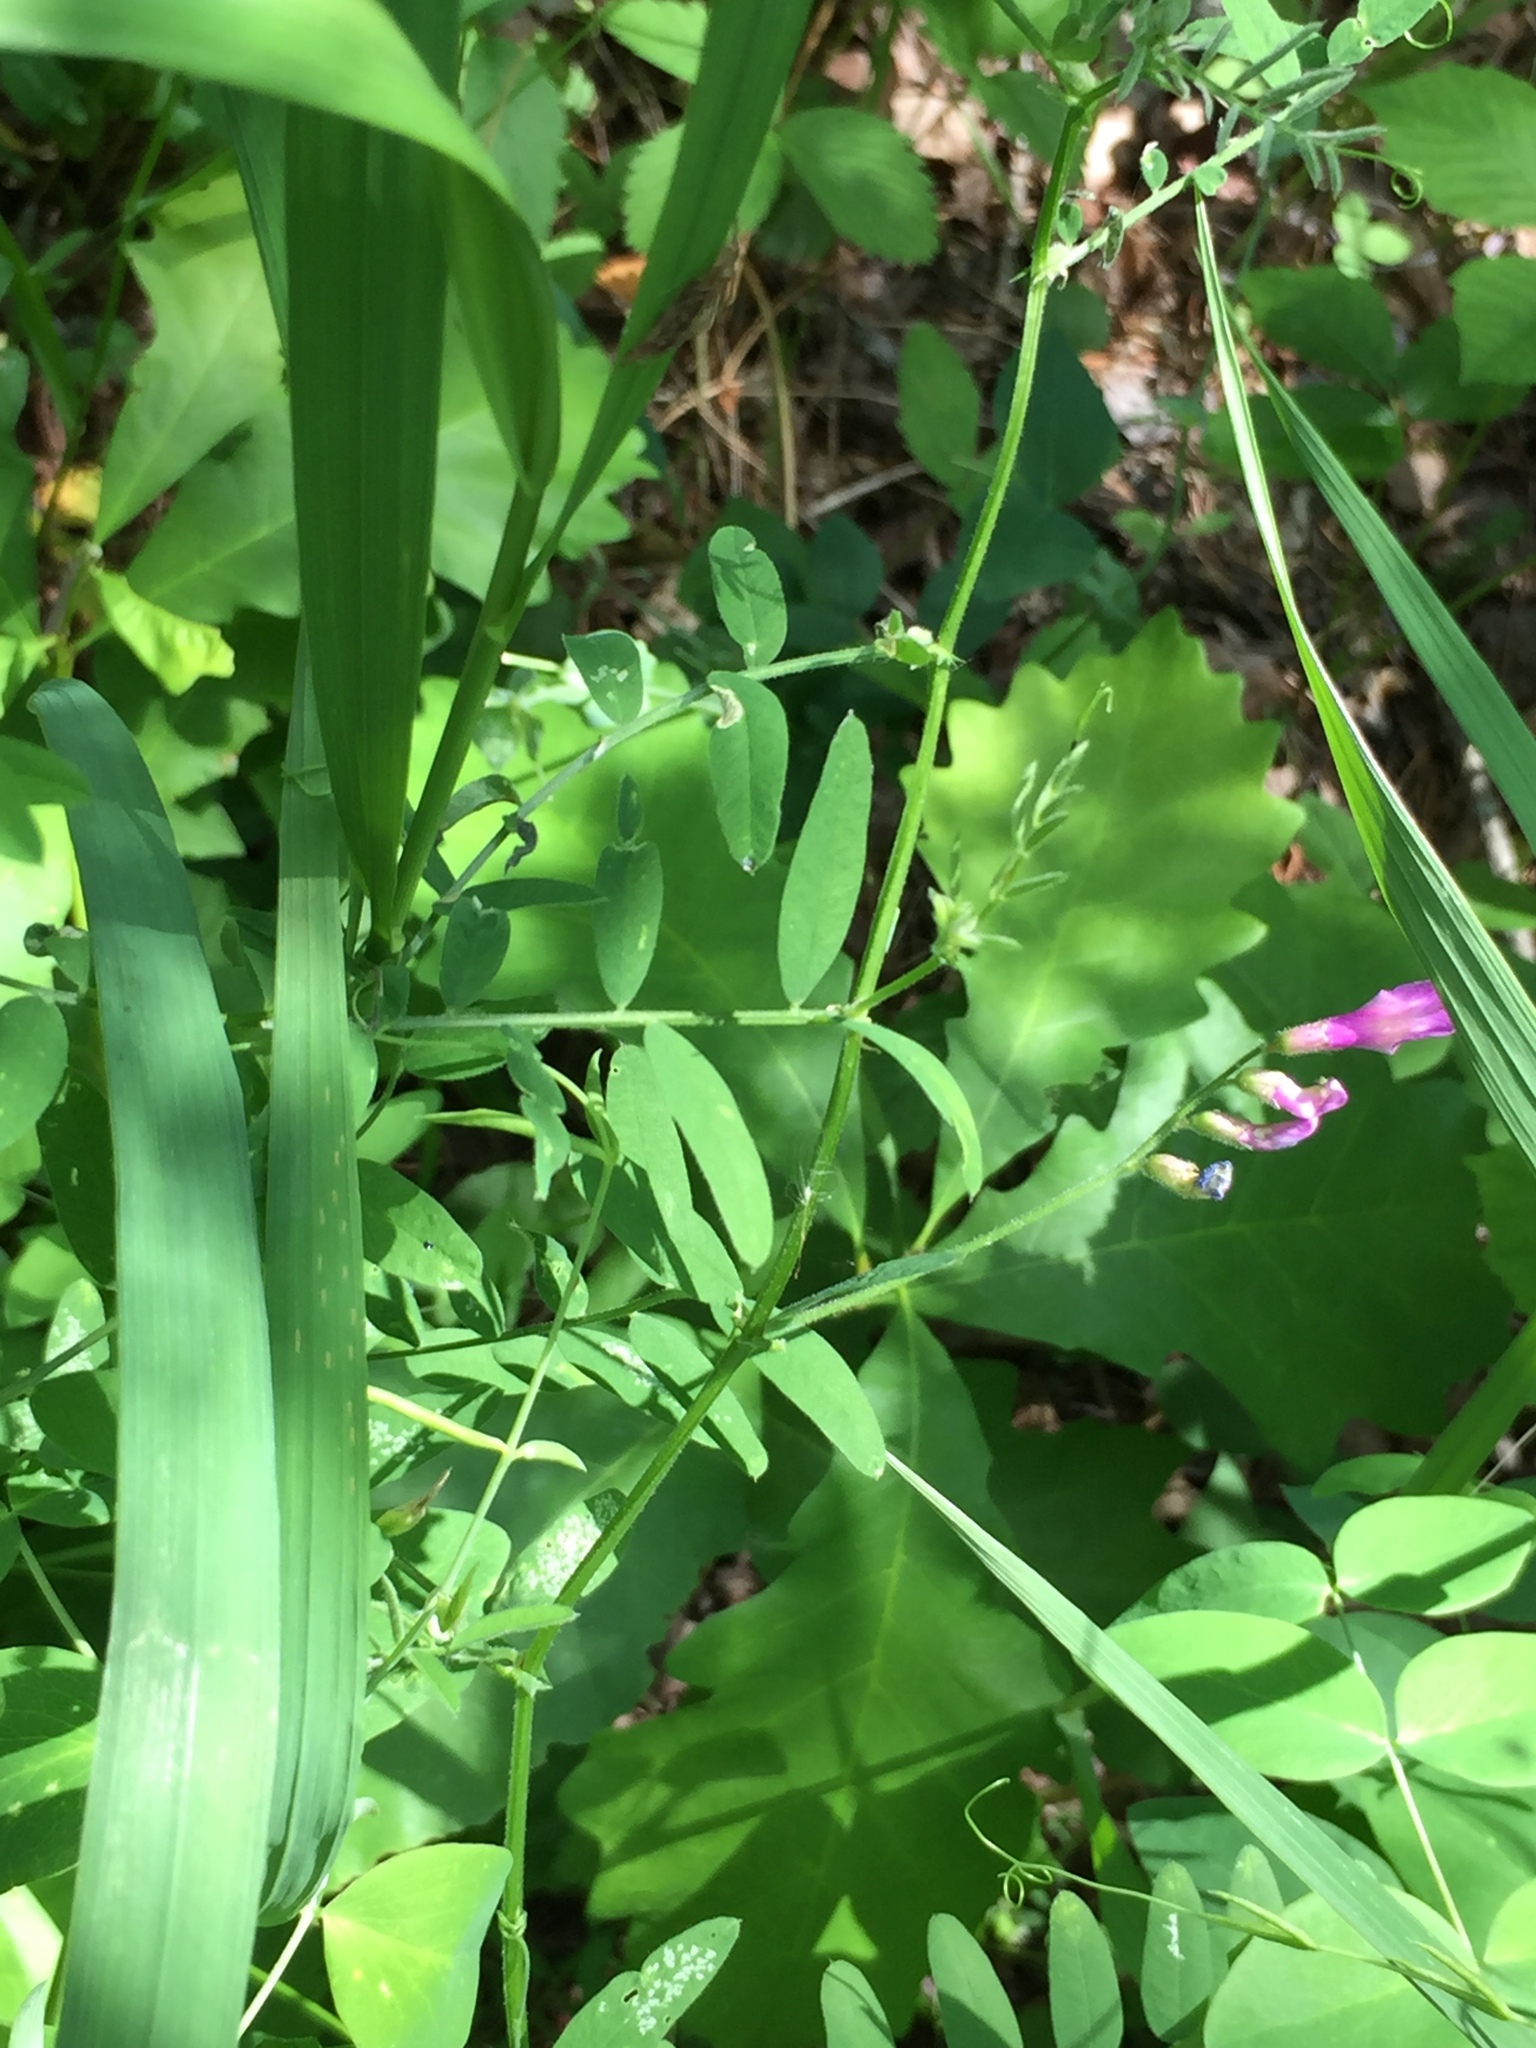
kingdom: Plantae
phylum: Tracheophyta
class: Magnoliopsida
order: Fabales
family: Fabaceae
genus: Vicia
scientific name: Vicia americana
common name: American vetch
